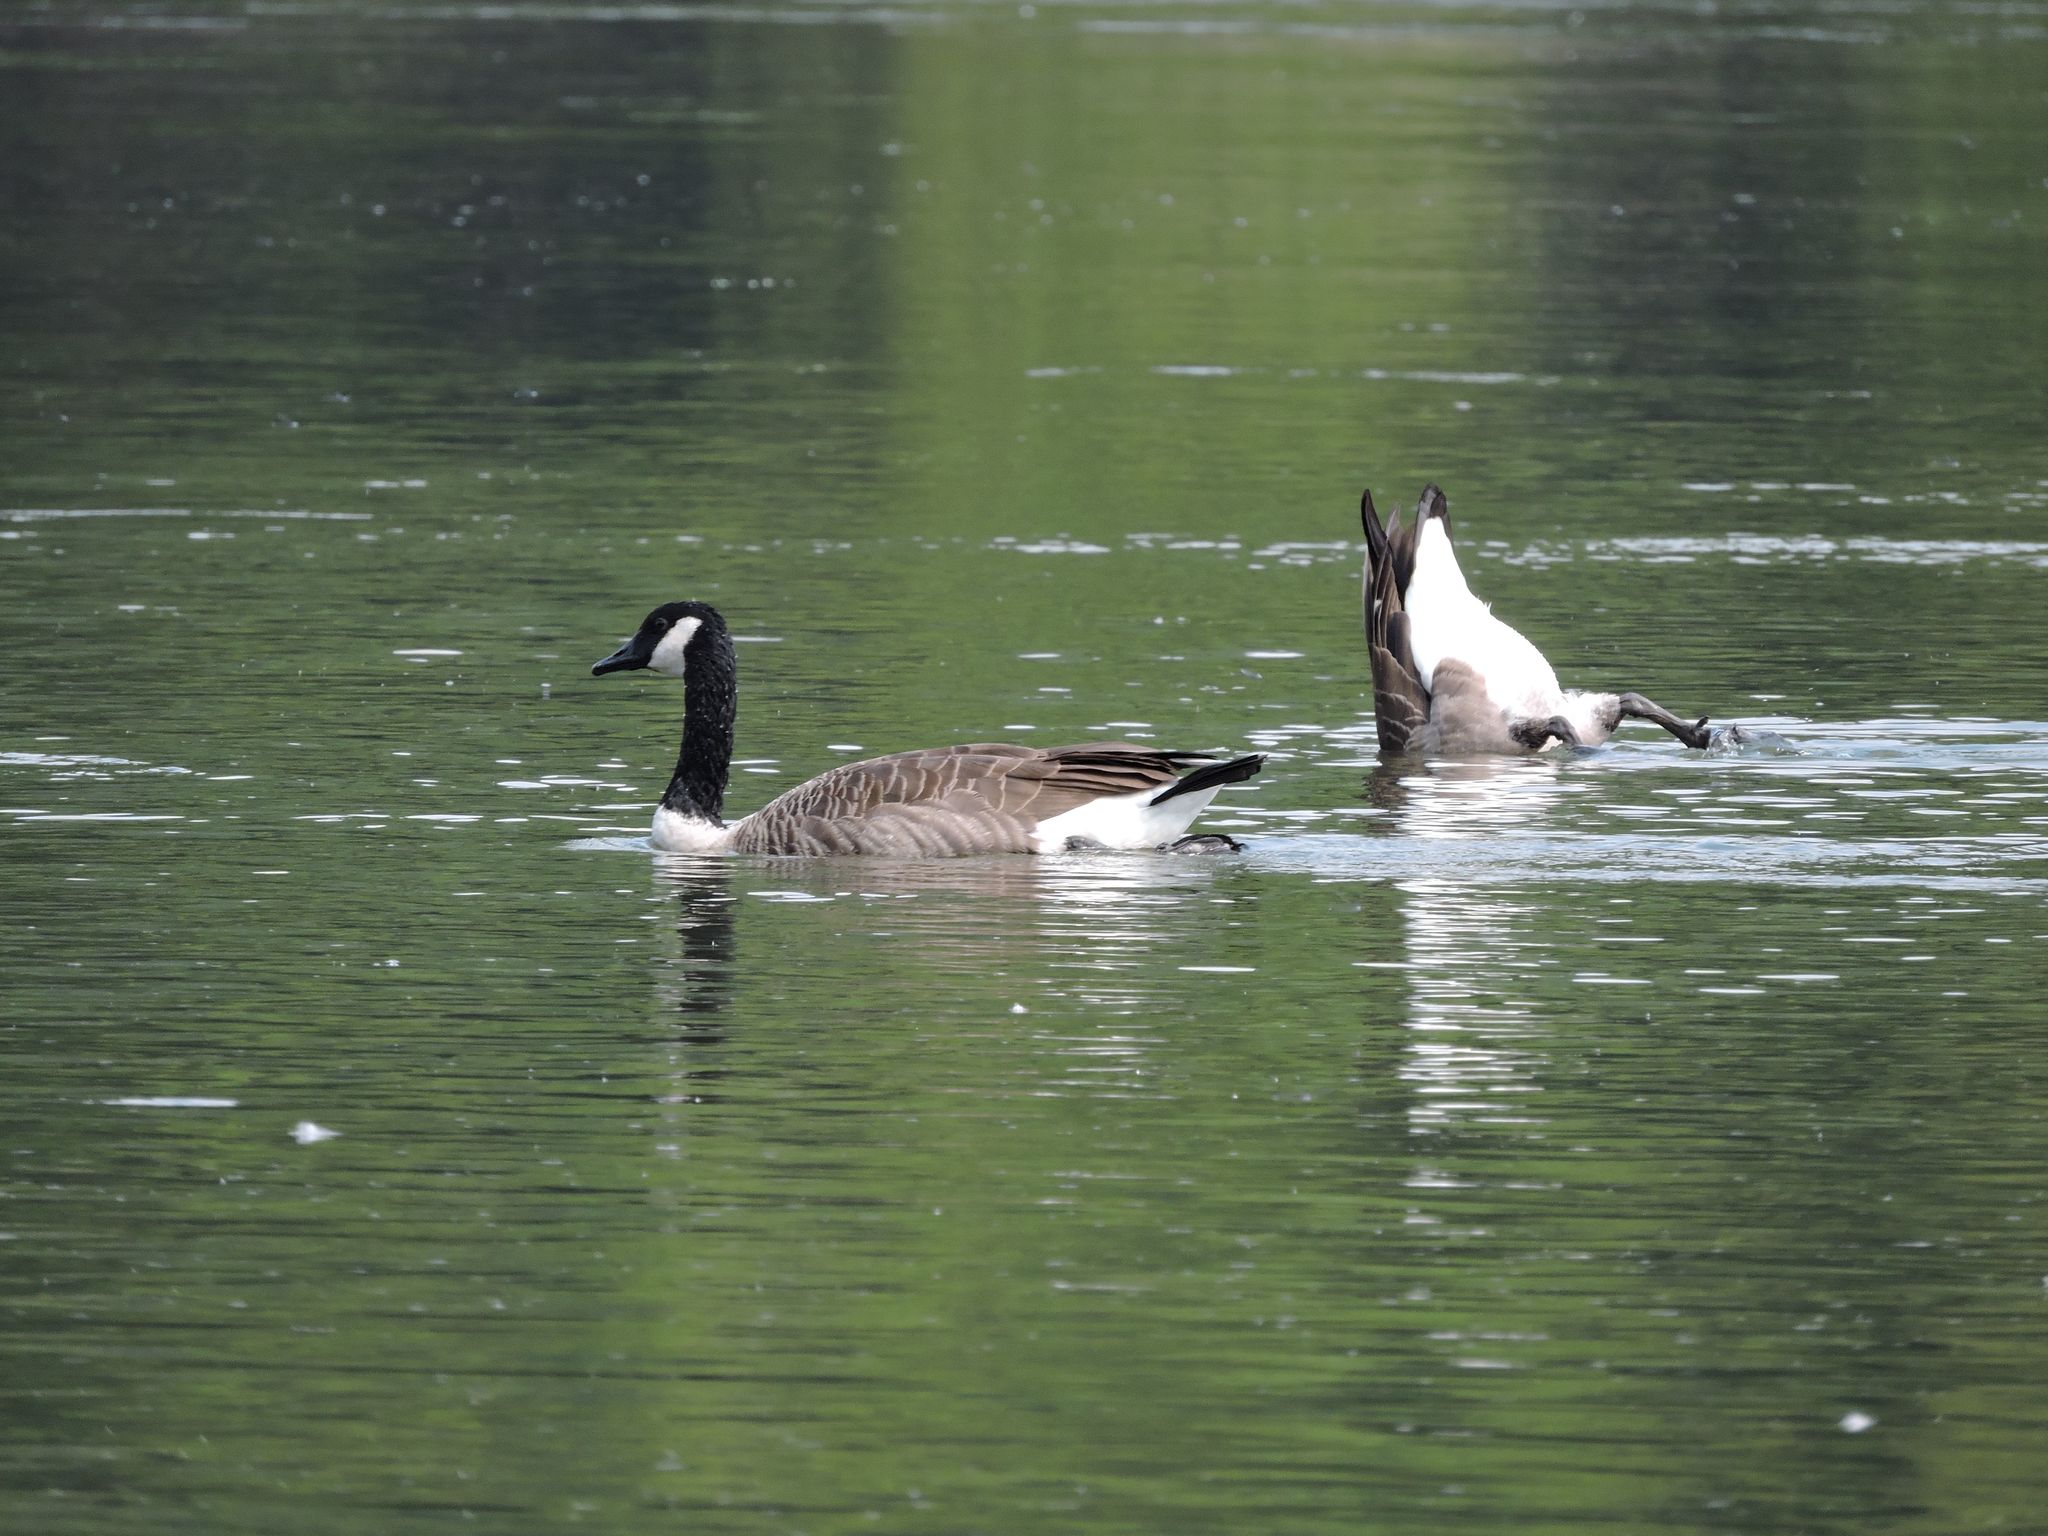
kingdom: Animalia
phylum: Chordata
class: Aves
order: Anseriformes
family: Anatidae
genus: Branta
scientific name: Branta canadensis
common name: Canada goose
